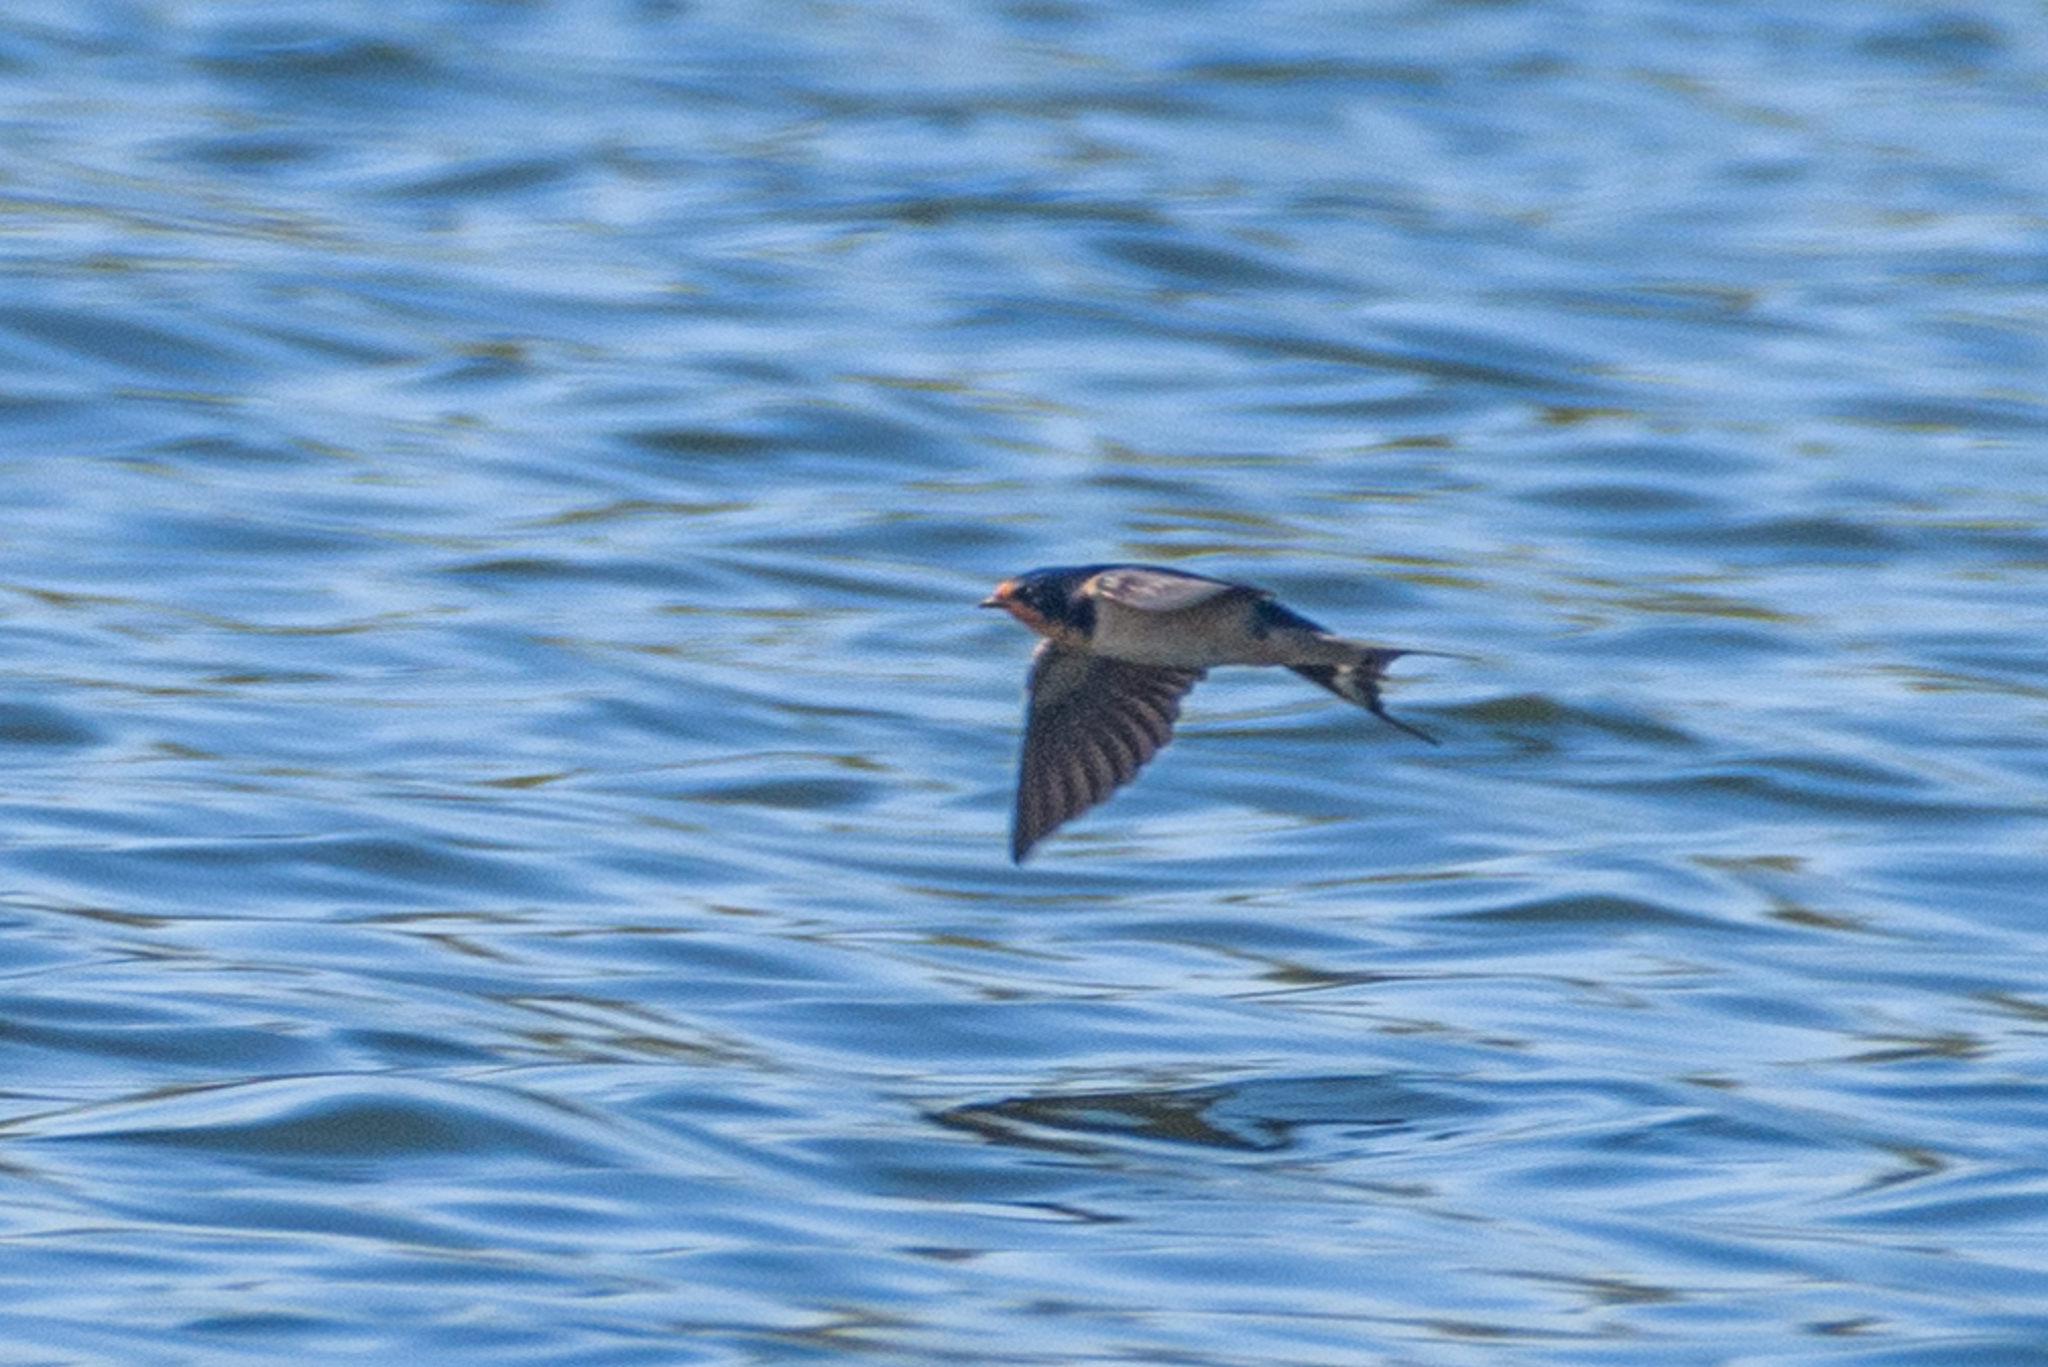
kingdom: Animalia
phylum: Chordata
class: Aves
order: Passeriformes
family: Hirundinidae
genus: Hirundo
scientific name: Hirundo rustica
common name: Barn swallow
